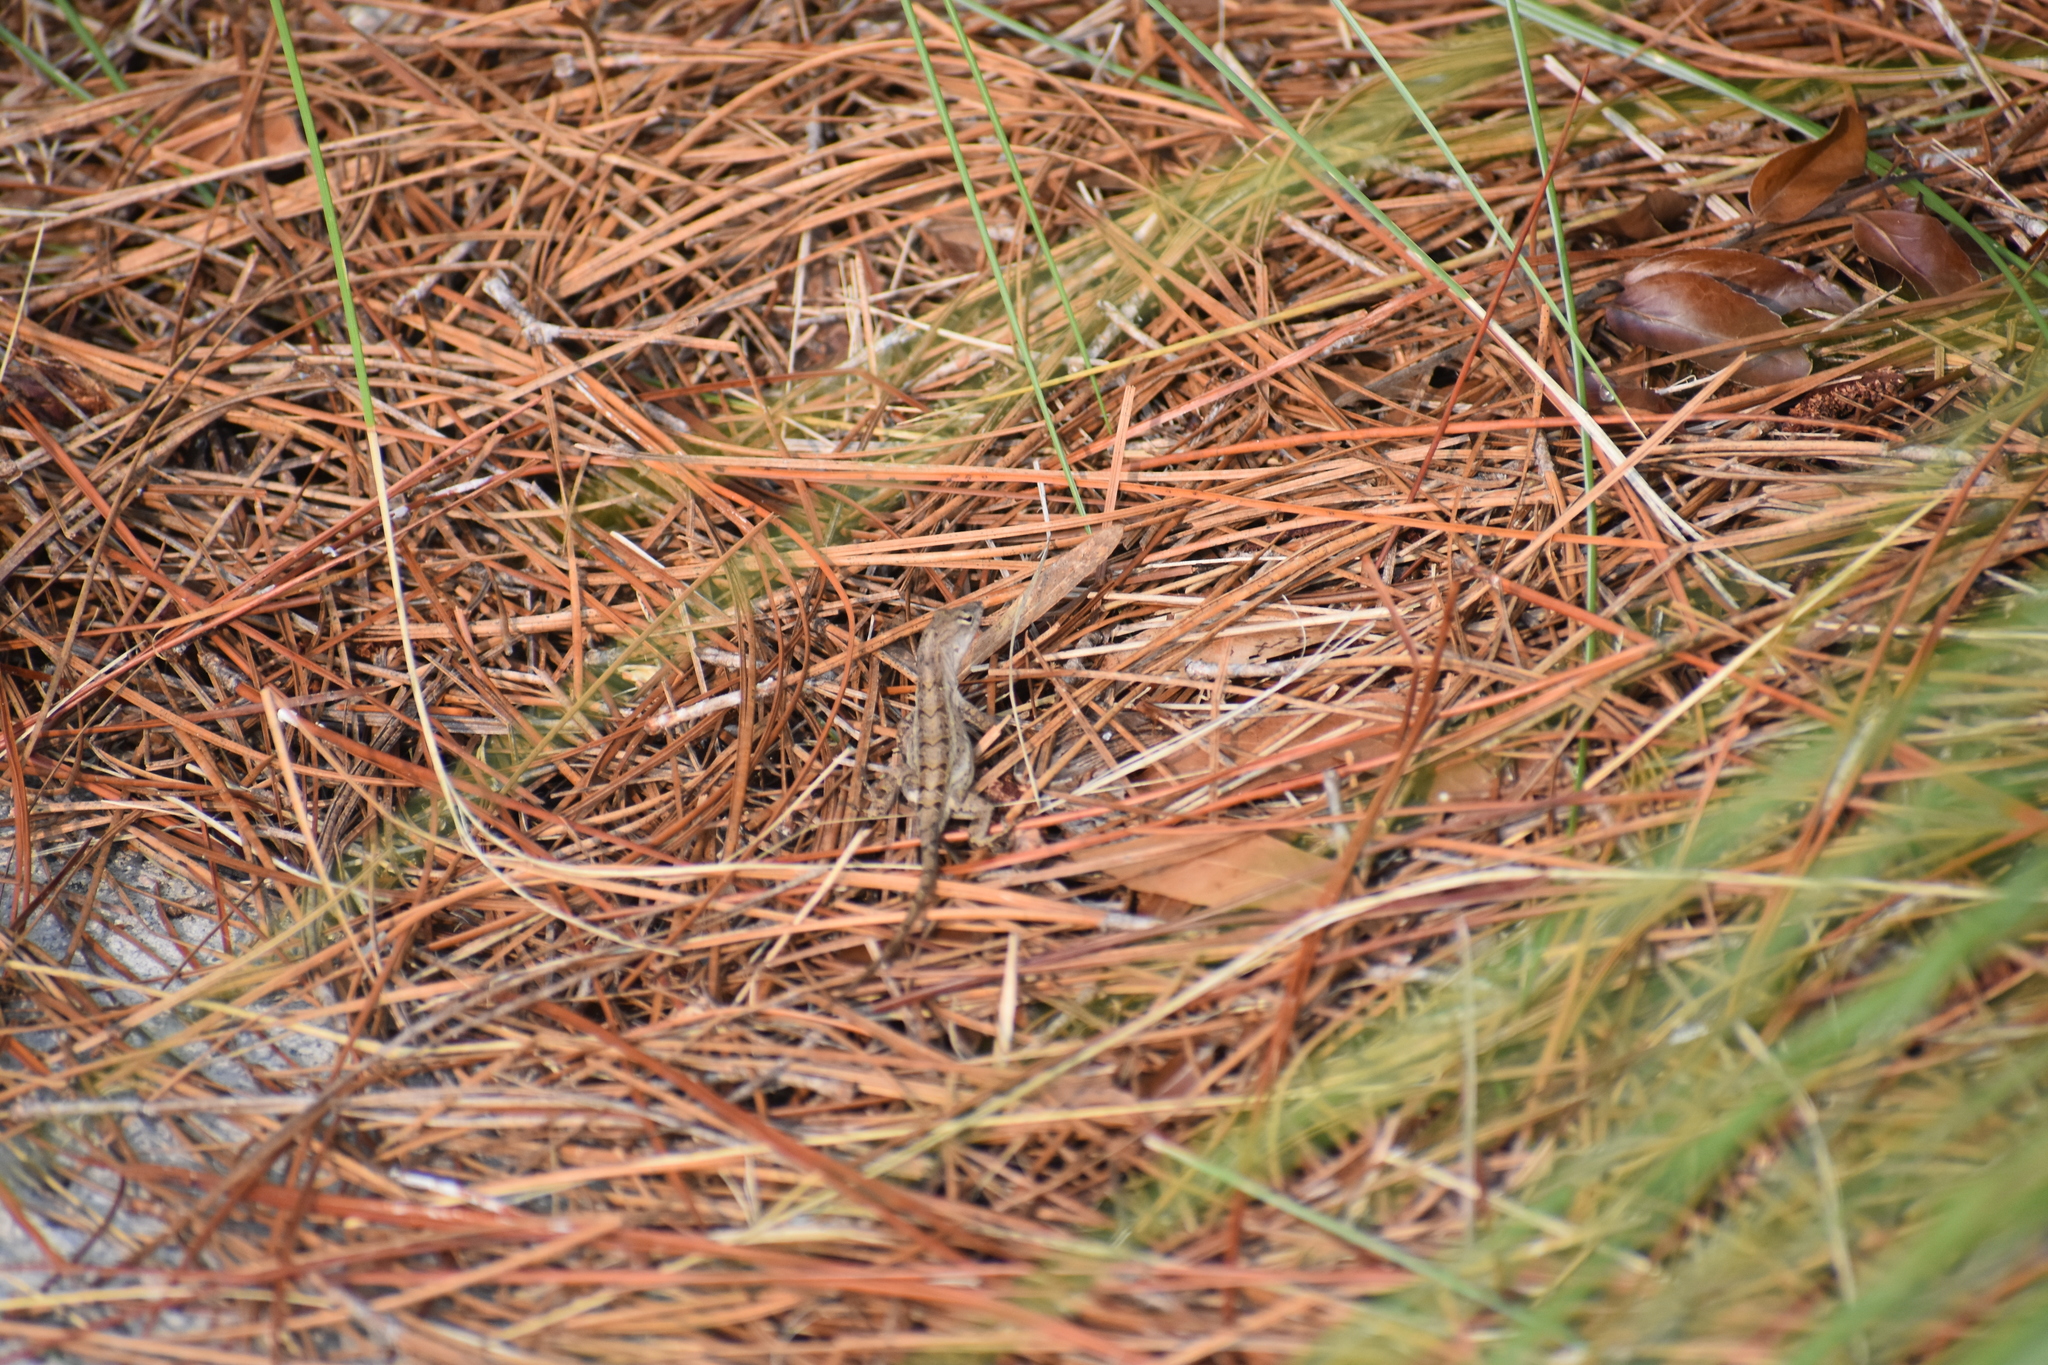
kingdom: Animalia
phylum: Chordata
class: Squamata
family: Dactyloidae
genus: Anolis
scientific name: Anolis sagrei
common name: Brown anole
